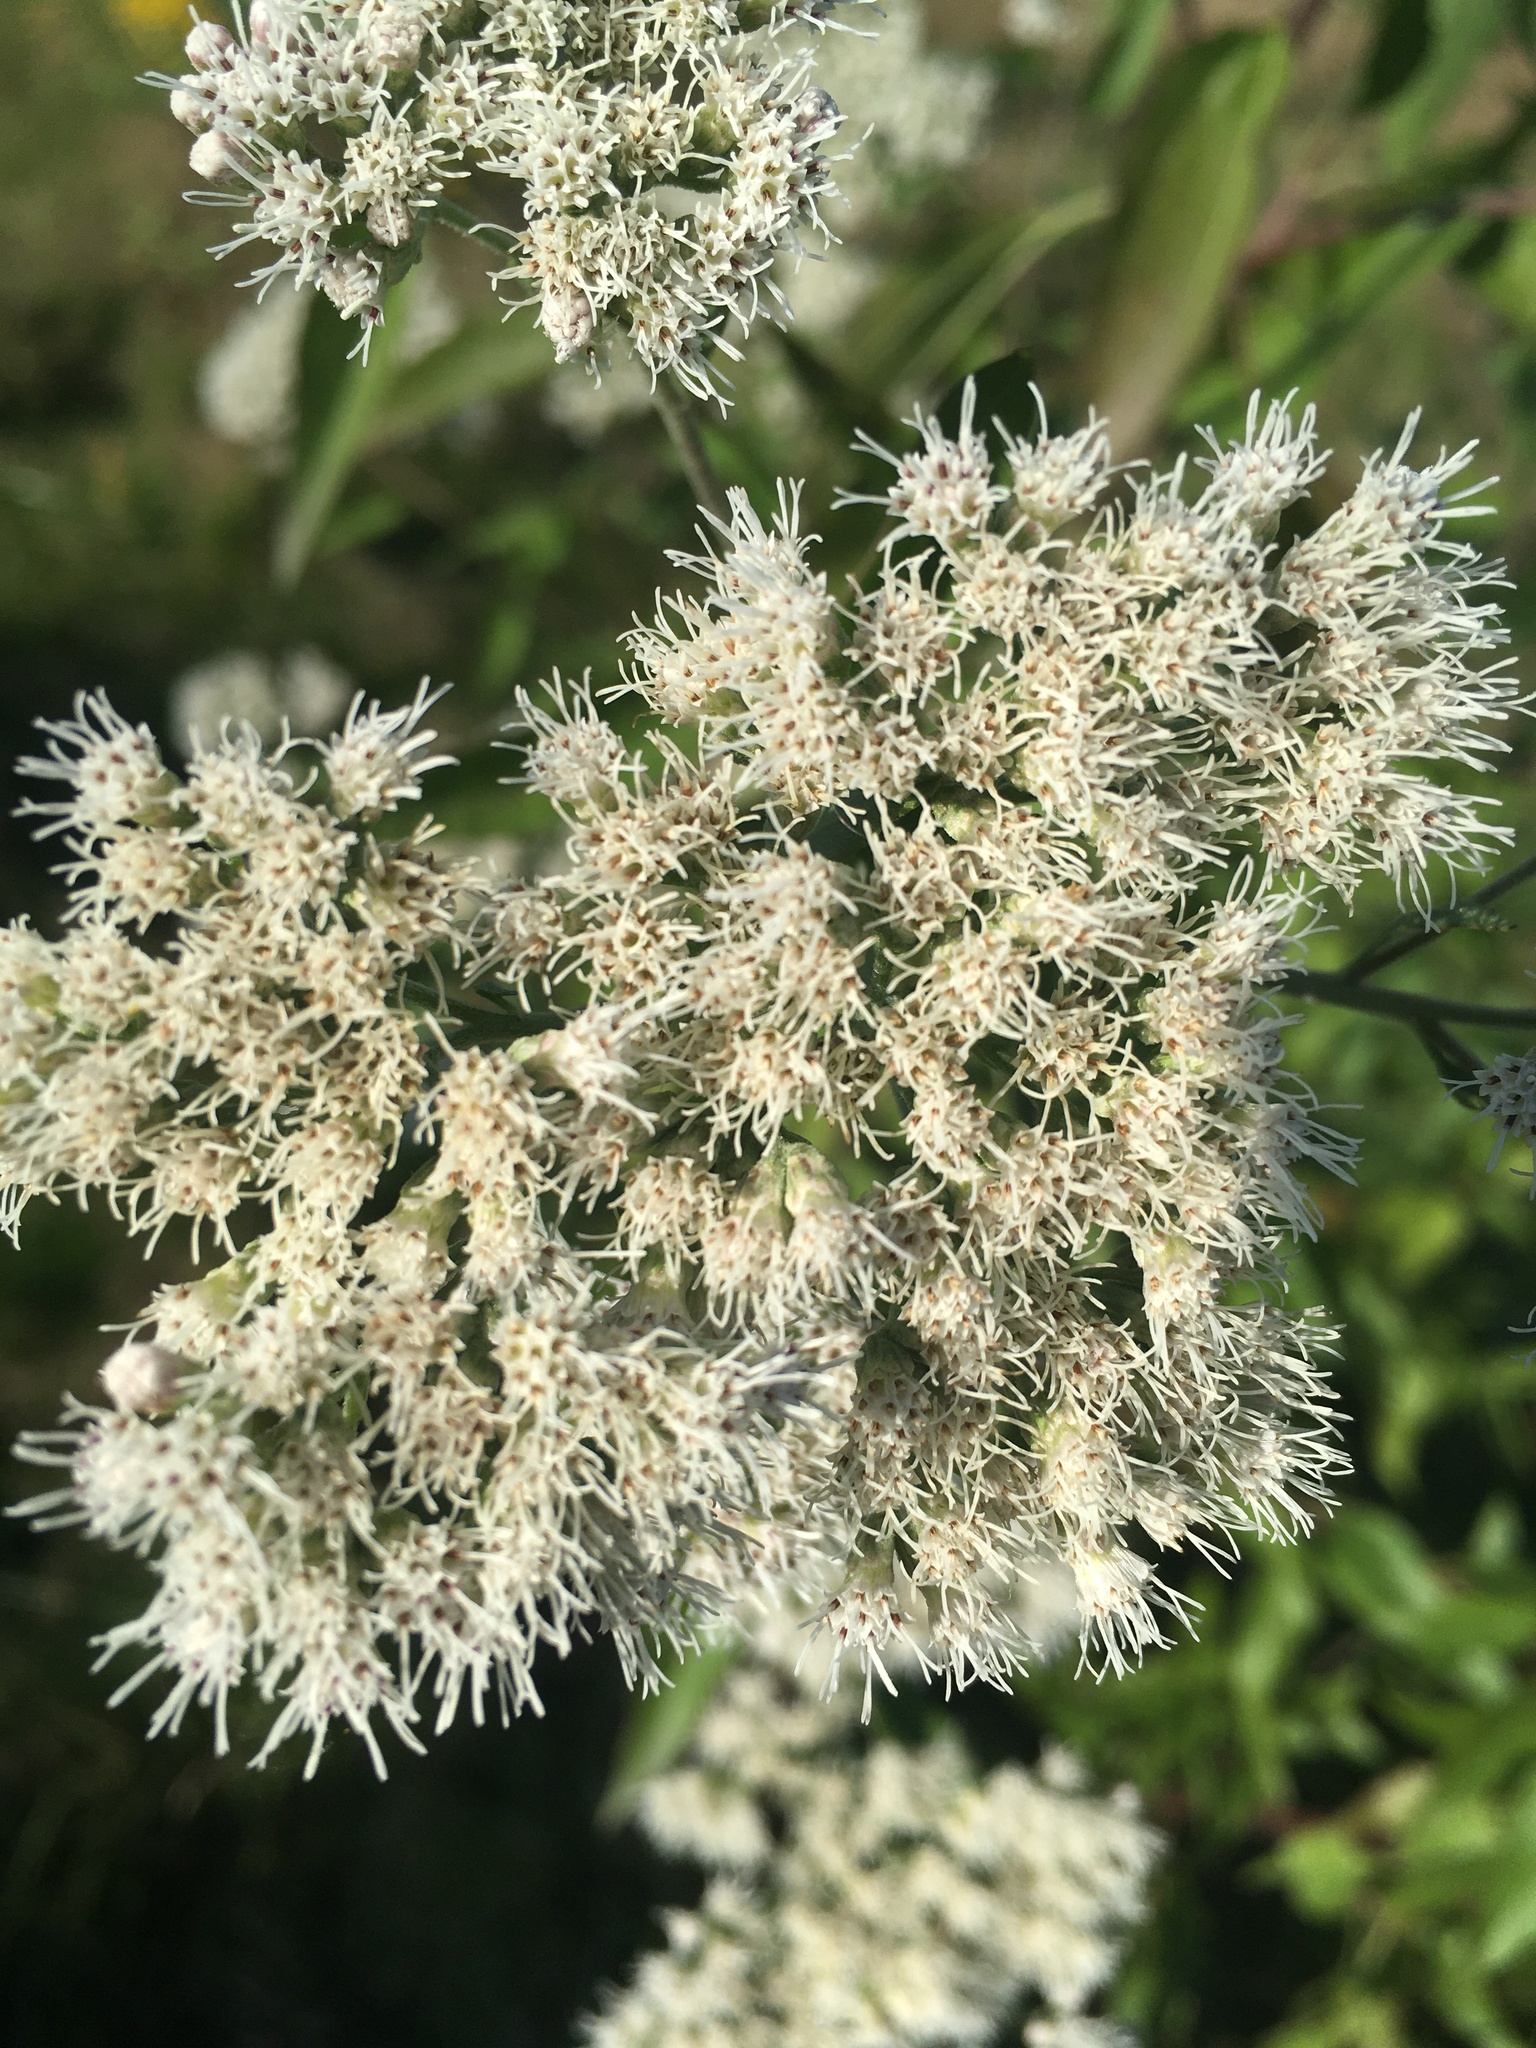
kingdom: Plantae
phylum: Tracheophyta
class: Magnoliopsida
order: Asterales
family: Asteraceae
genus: Eupatorium
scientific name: Eupatorium serotinum
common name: Late boneset
